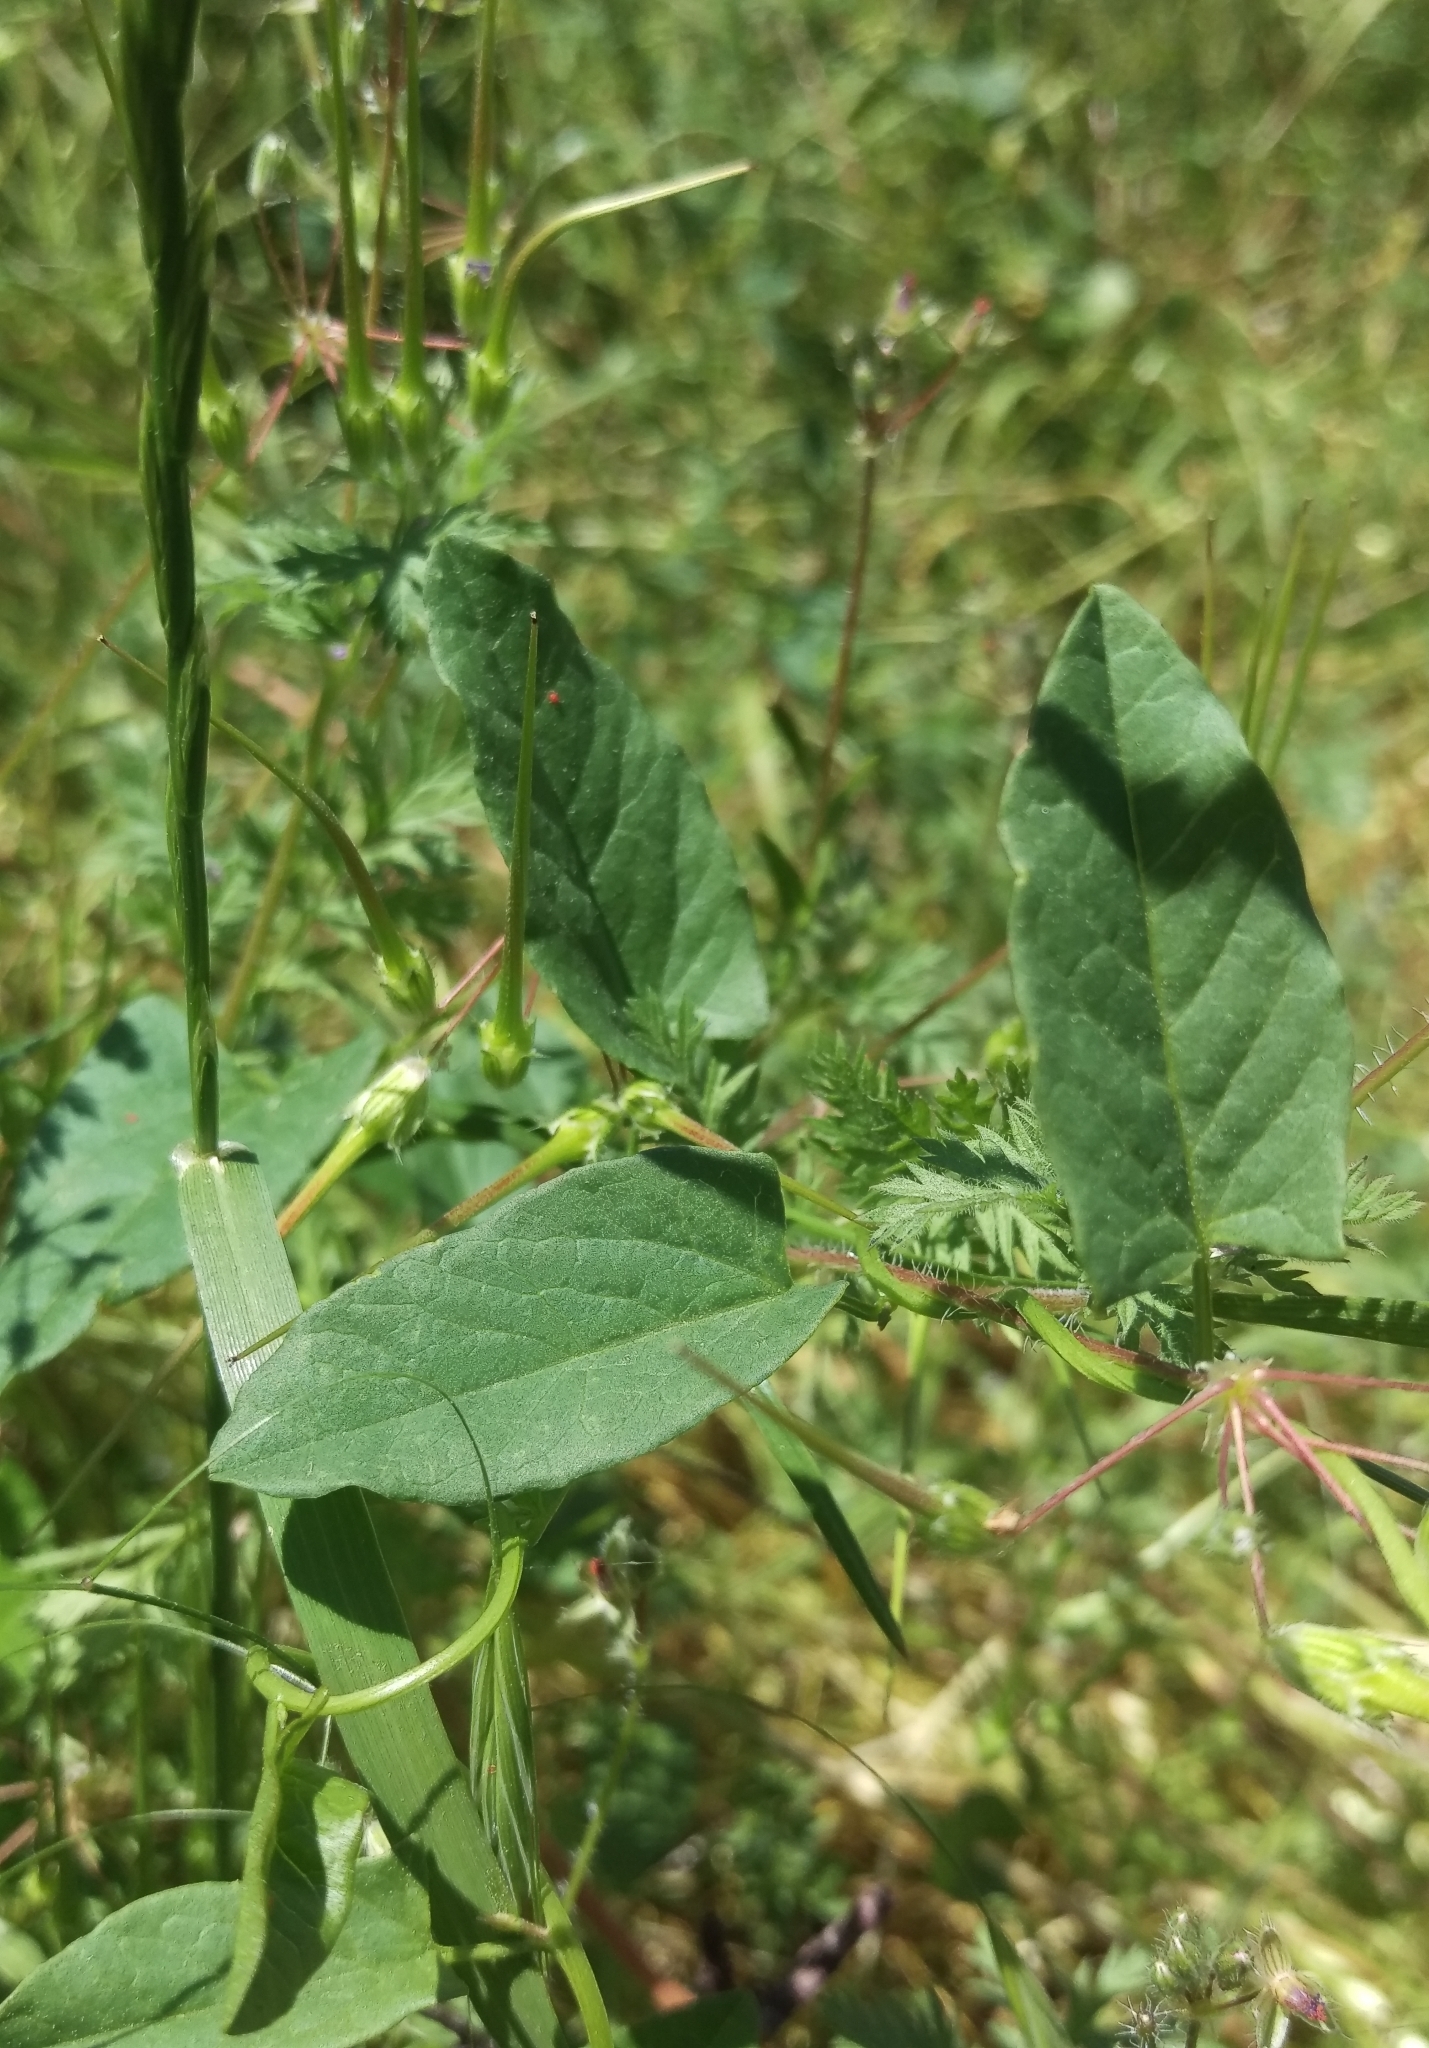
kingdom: Plantae
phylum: Tracheophyta
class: Magnoliopsida
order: Solanales
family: Convolvulaceae
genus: Convolvulus
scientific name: Convolvulus arvensis
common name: Field bindweed
